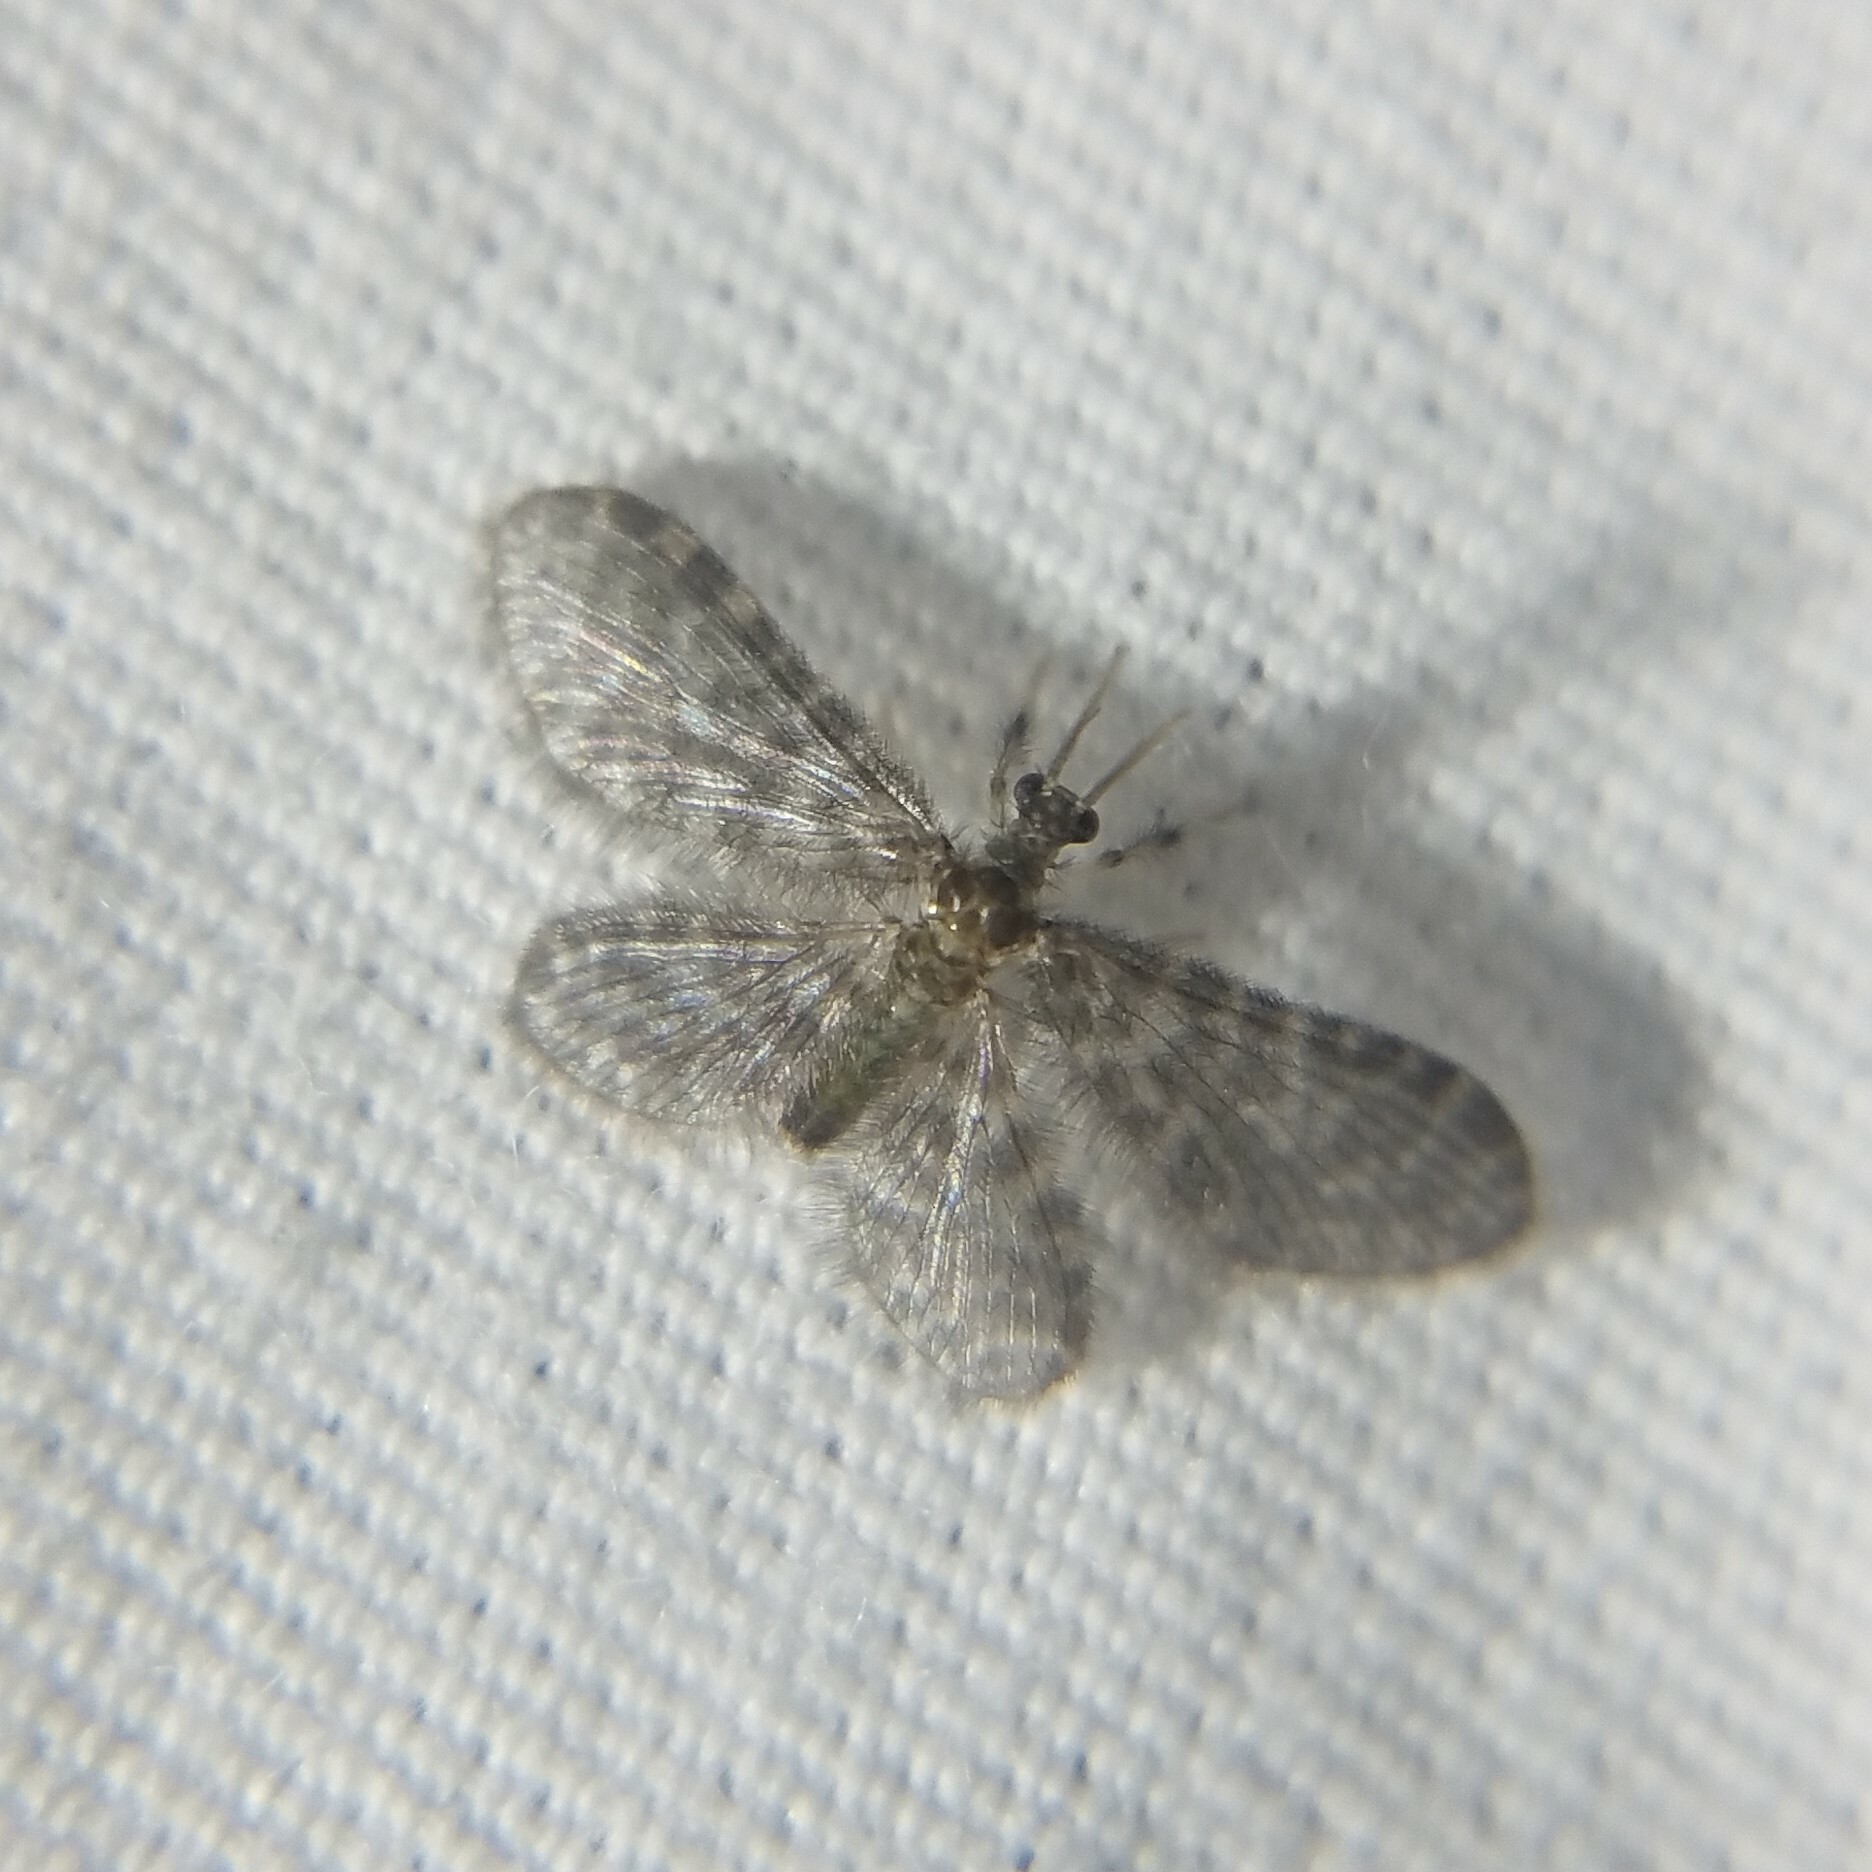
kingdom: Animalia
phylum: Arthropoda
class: Insecta
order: Neuroptera
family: Dilaridae
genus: Nallachius
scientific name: Nallachius americanus
